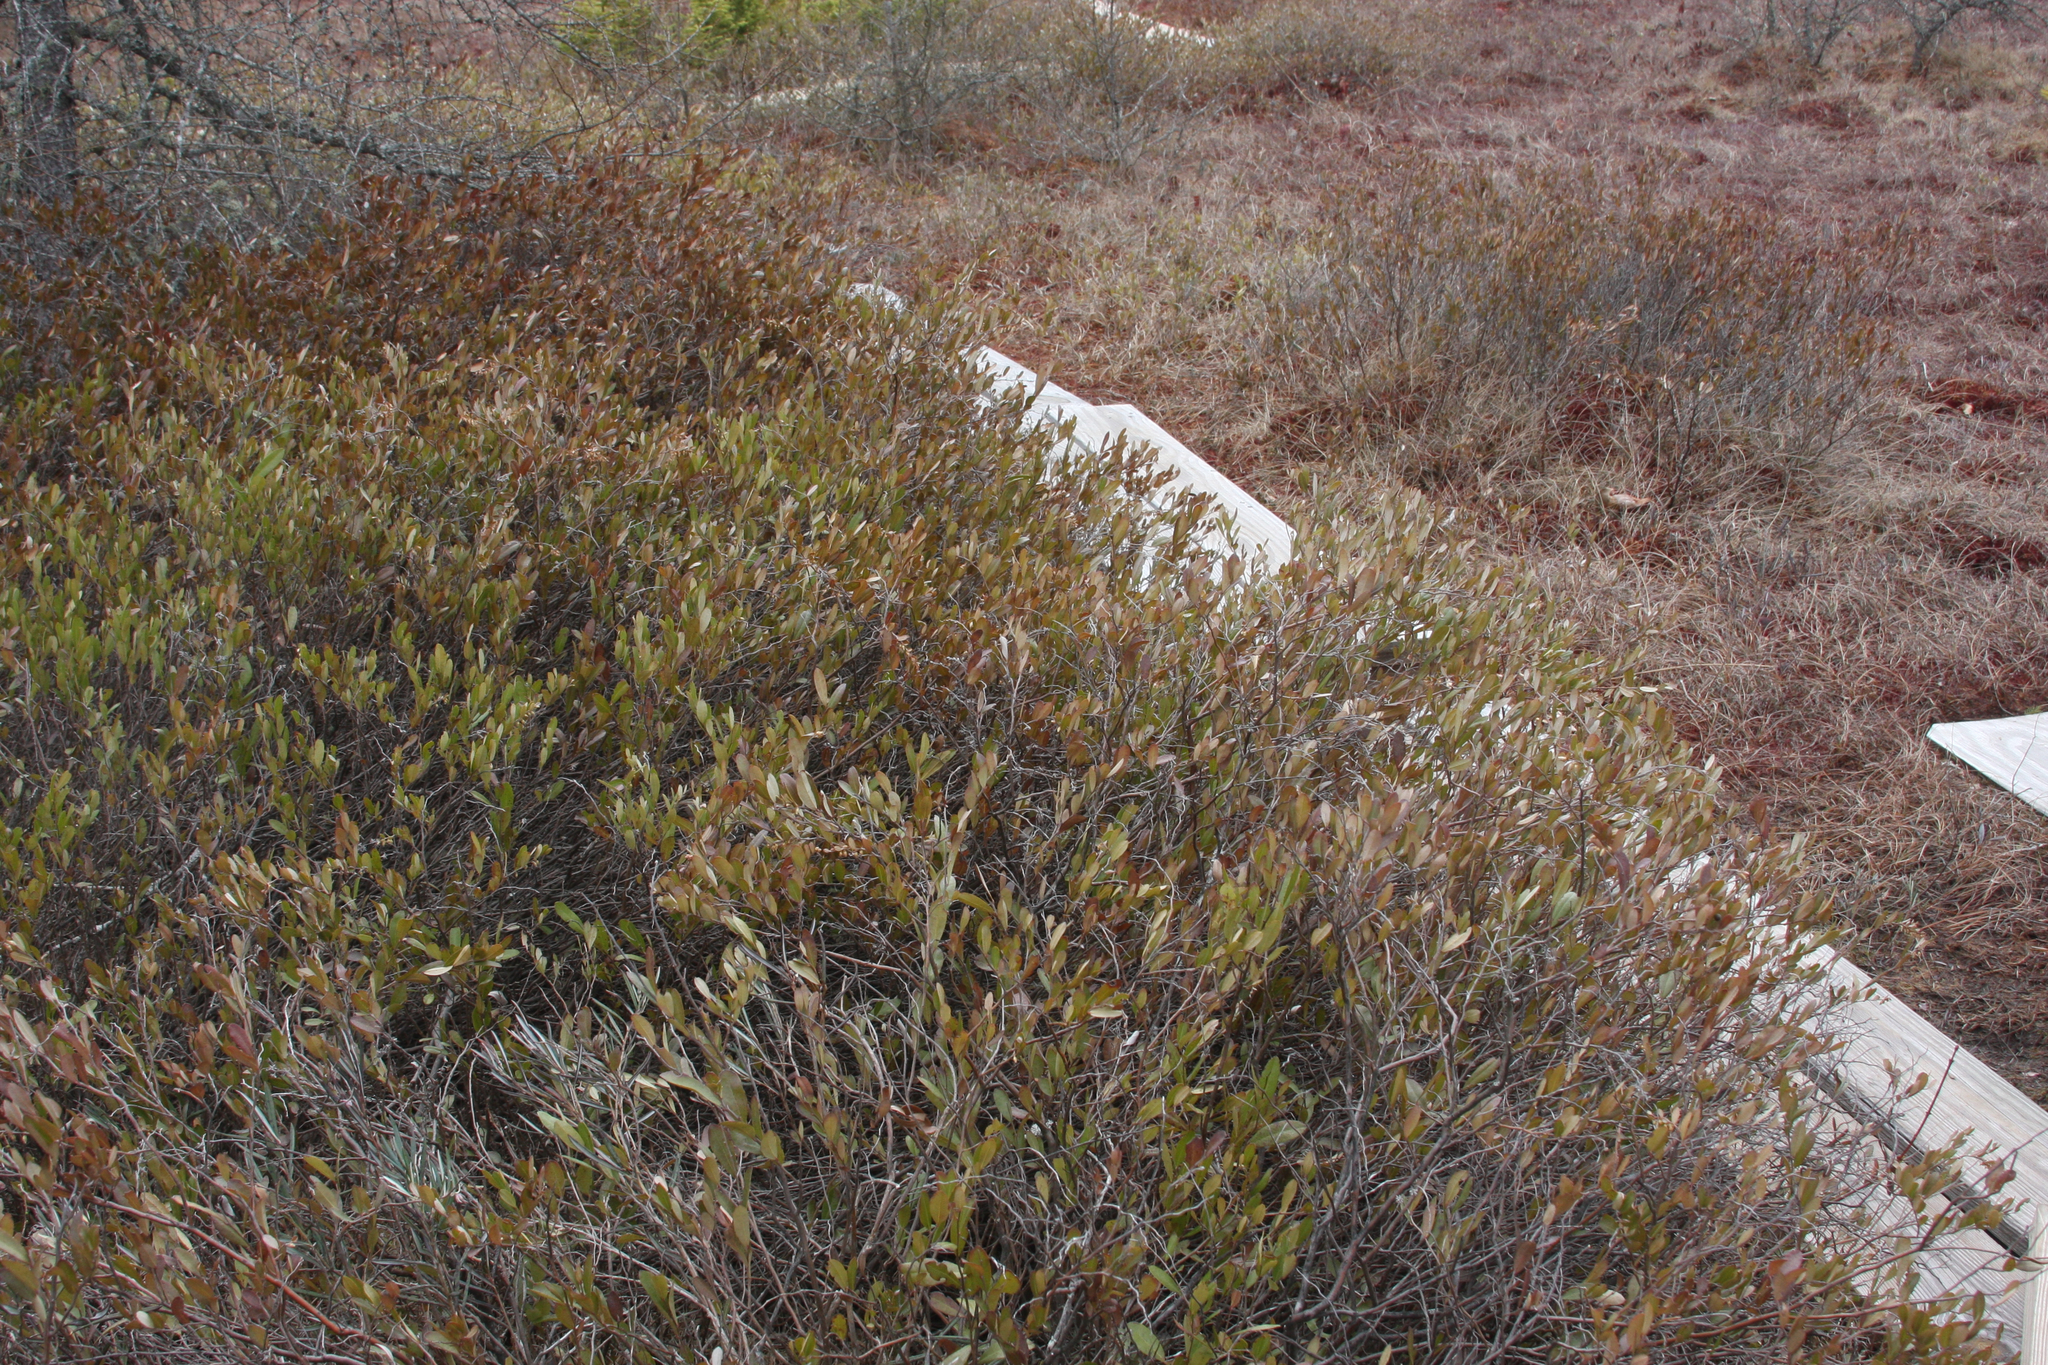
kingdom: Plantae
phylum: Tracheophyta
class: Magnoliopsida
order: Ericales
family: Ericaceae
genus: Chamaedaphne
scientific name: Chamaedaphne calyculata
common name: Leatherleaf
